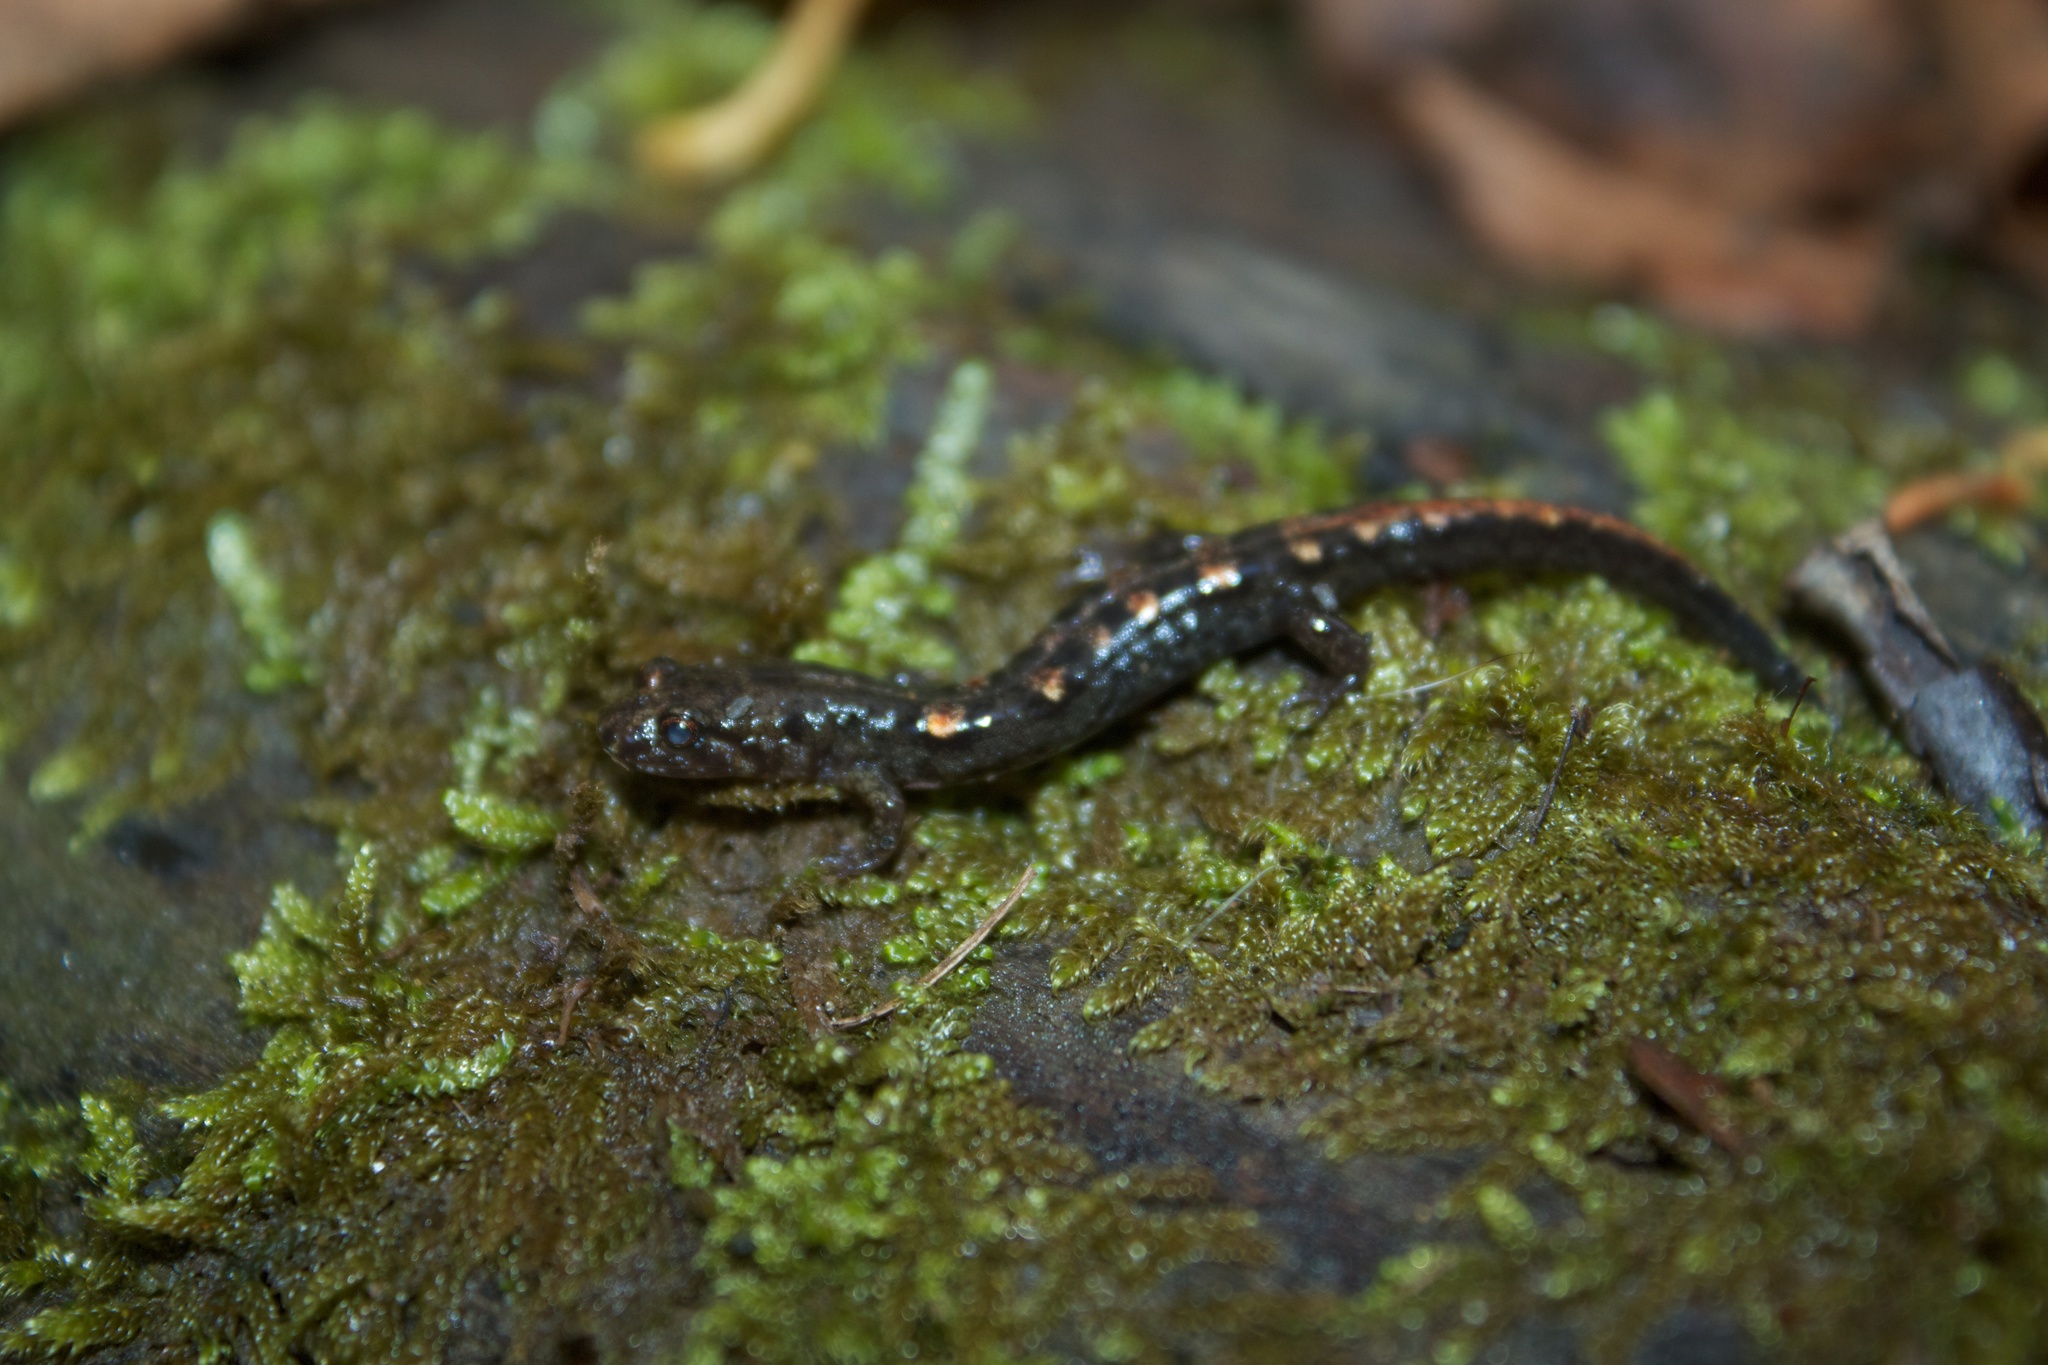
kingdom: Animalia
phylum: Chordata
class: Amphibia
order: Caudata
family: Plethodontidae
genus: Desmognathus
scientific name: Desmognathus imitator
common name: Imitator salamander
